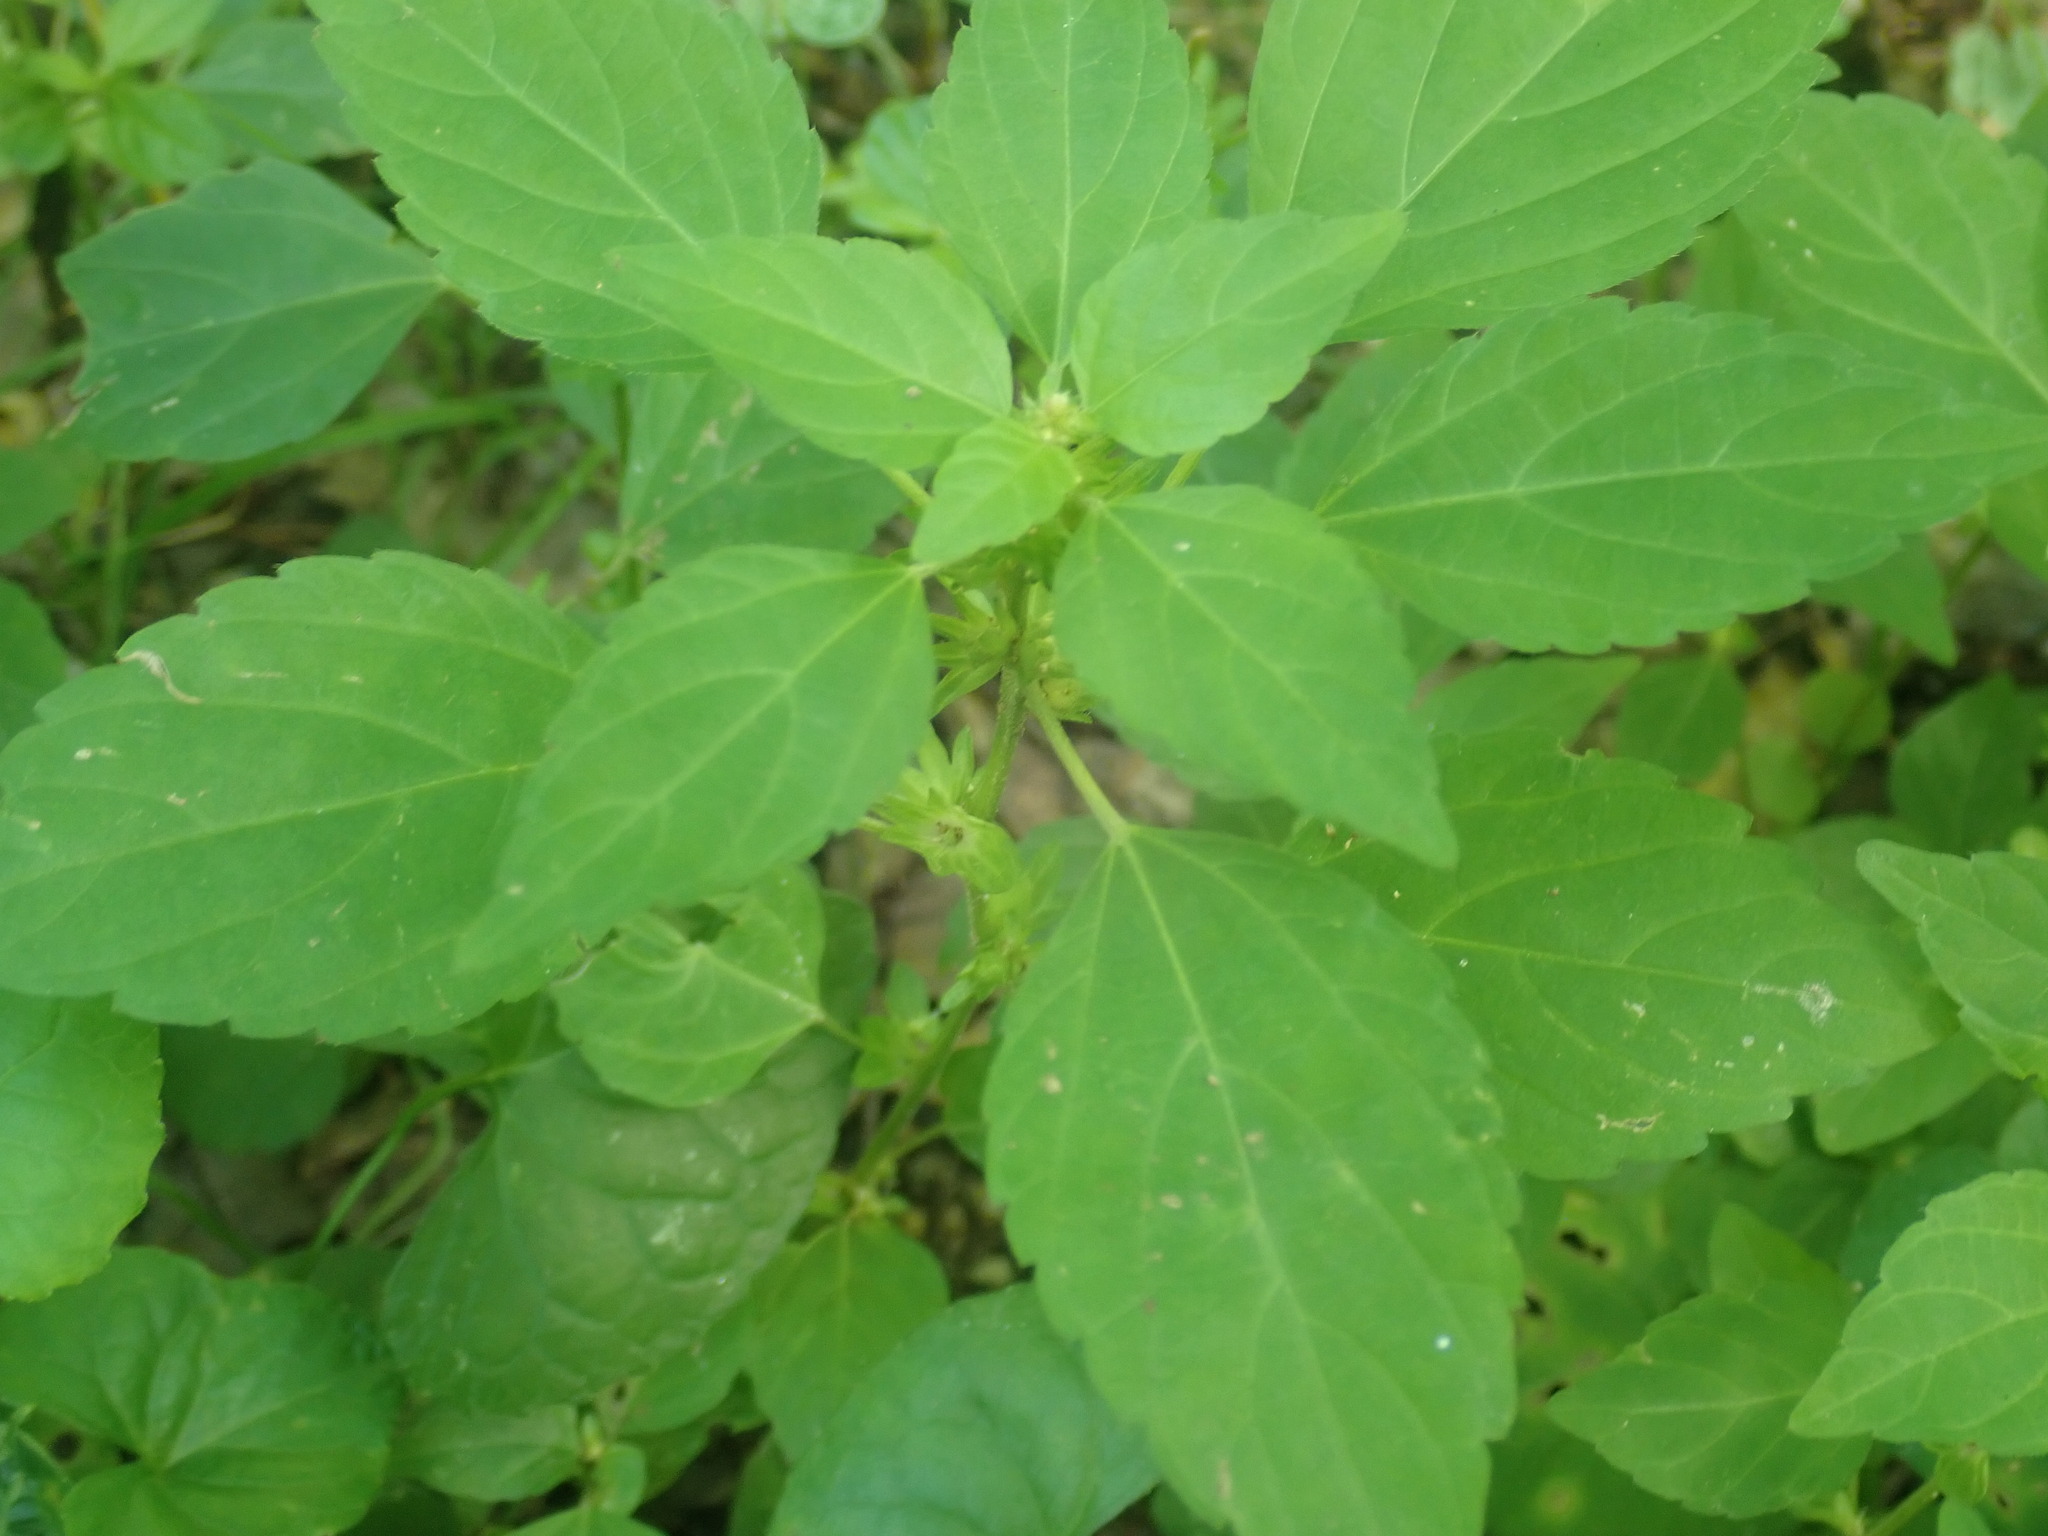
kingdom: Plantae
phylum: Tracheophyta
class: Magnoliopsida
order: Malpighiales
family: Euphorbiaceae
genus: Acalypha
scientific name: Acalypha rhomboidea
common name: Rhombic copperleaf
